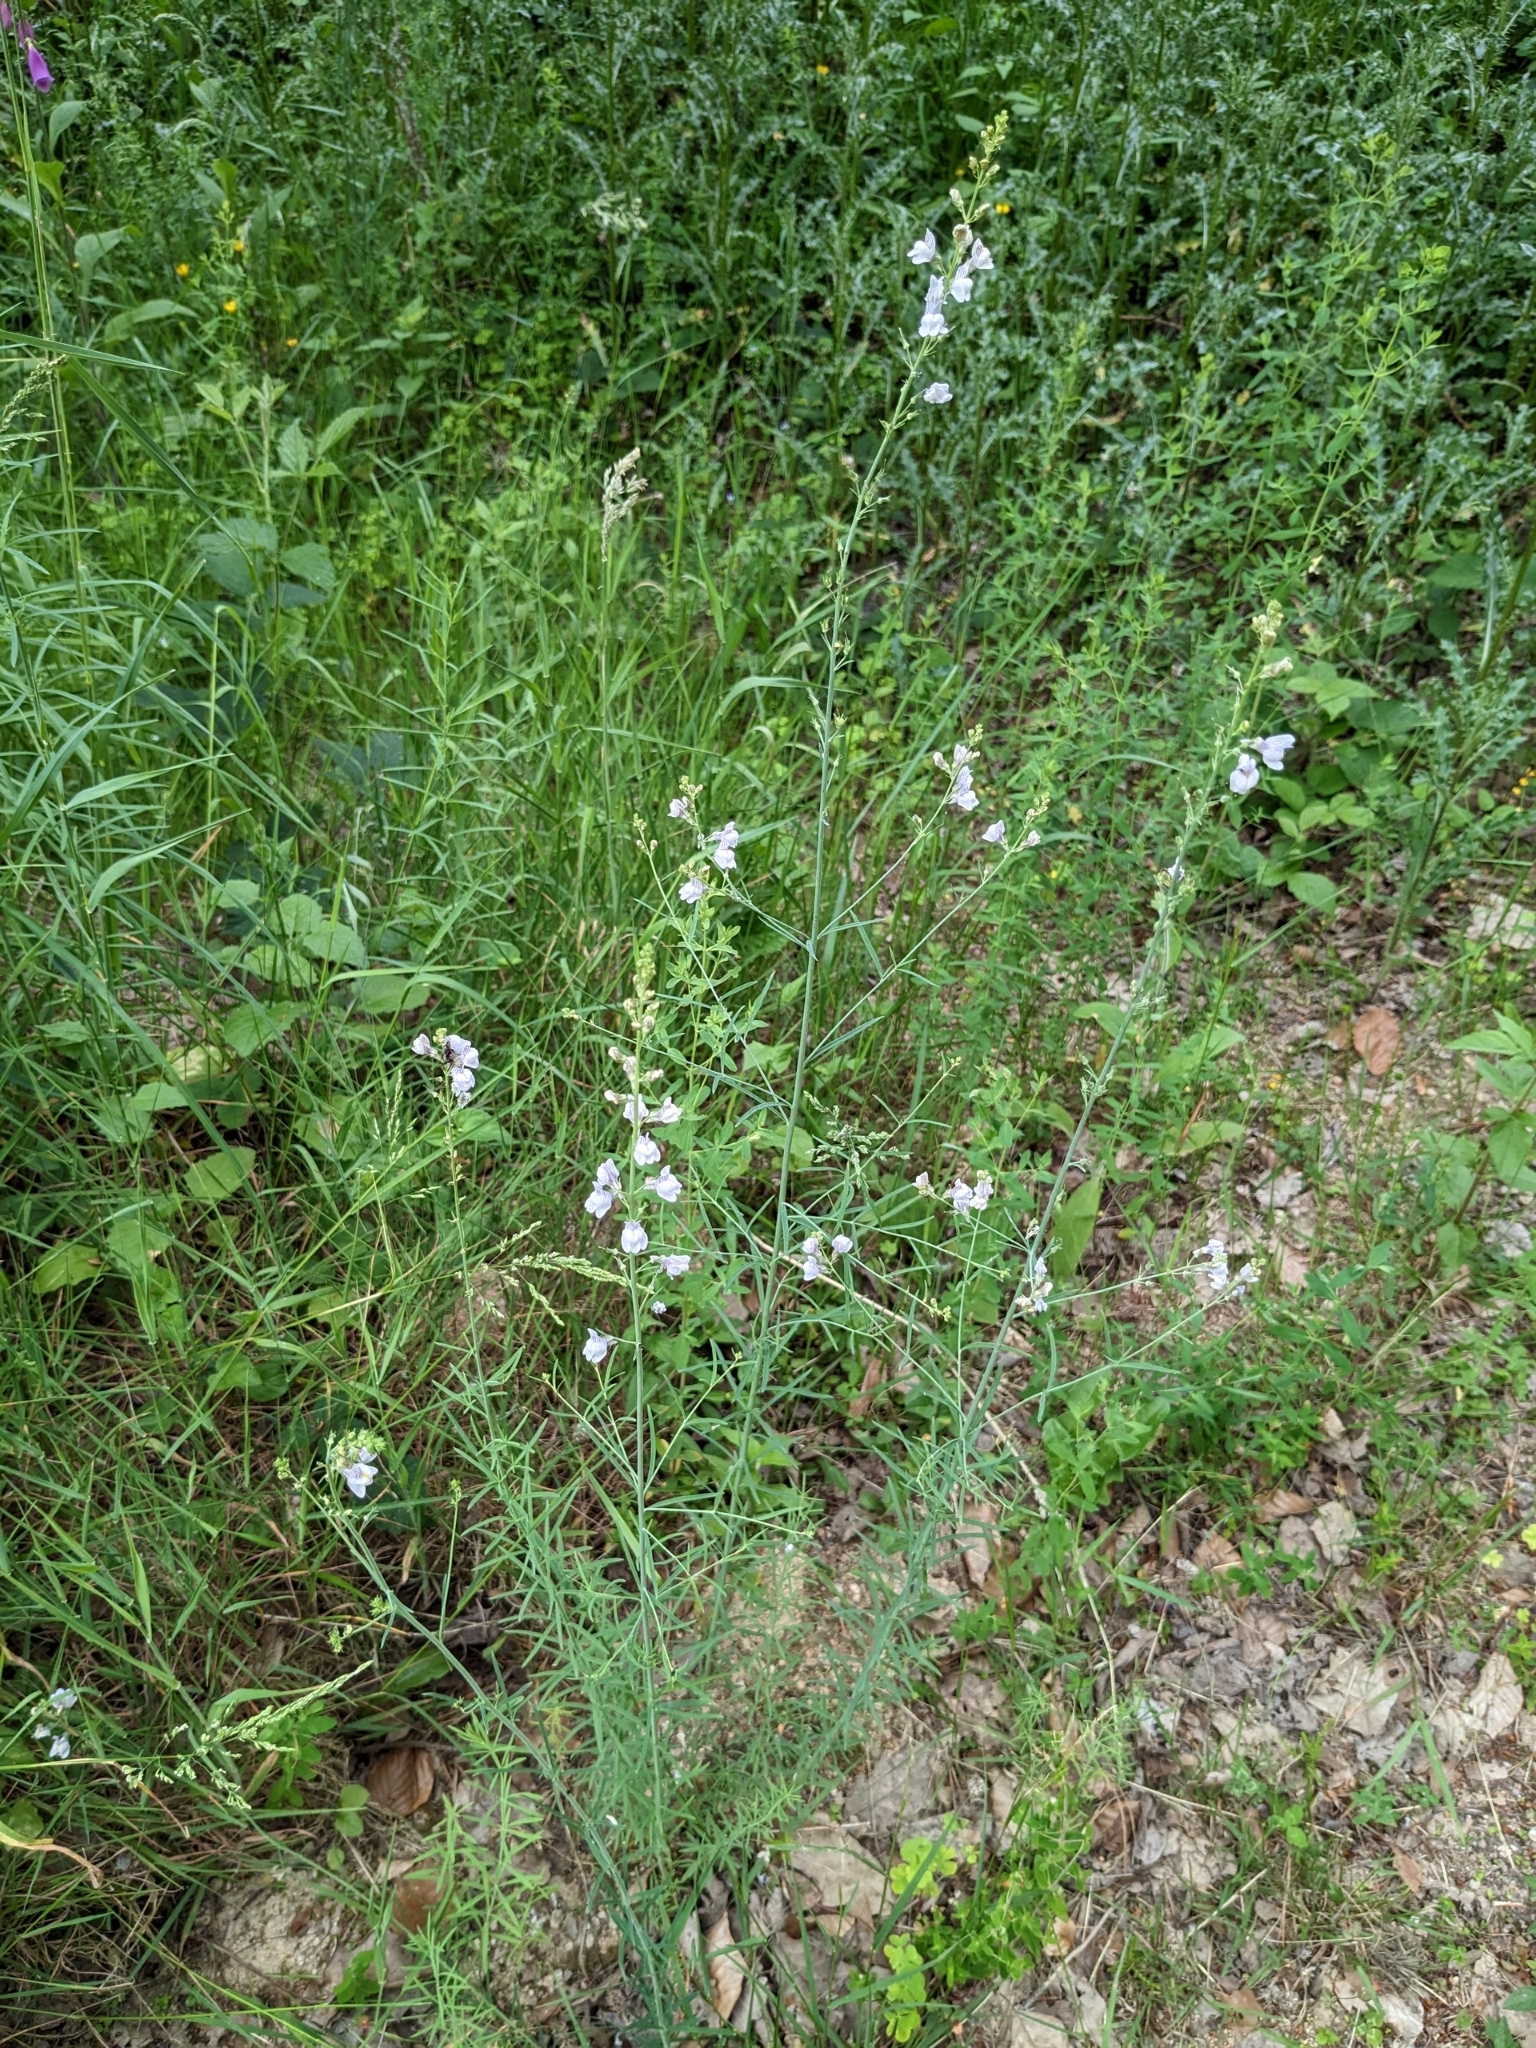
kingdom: Plantae
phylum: Tracheophyta
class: Magnoliopsida
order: Lamiales
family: Plantaginaceae
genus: Linaria
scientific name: Linaria repens
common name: Pale toadflax
